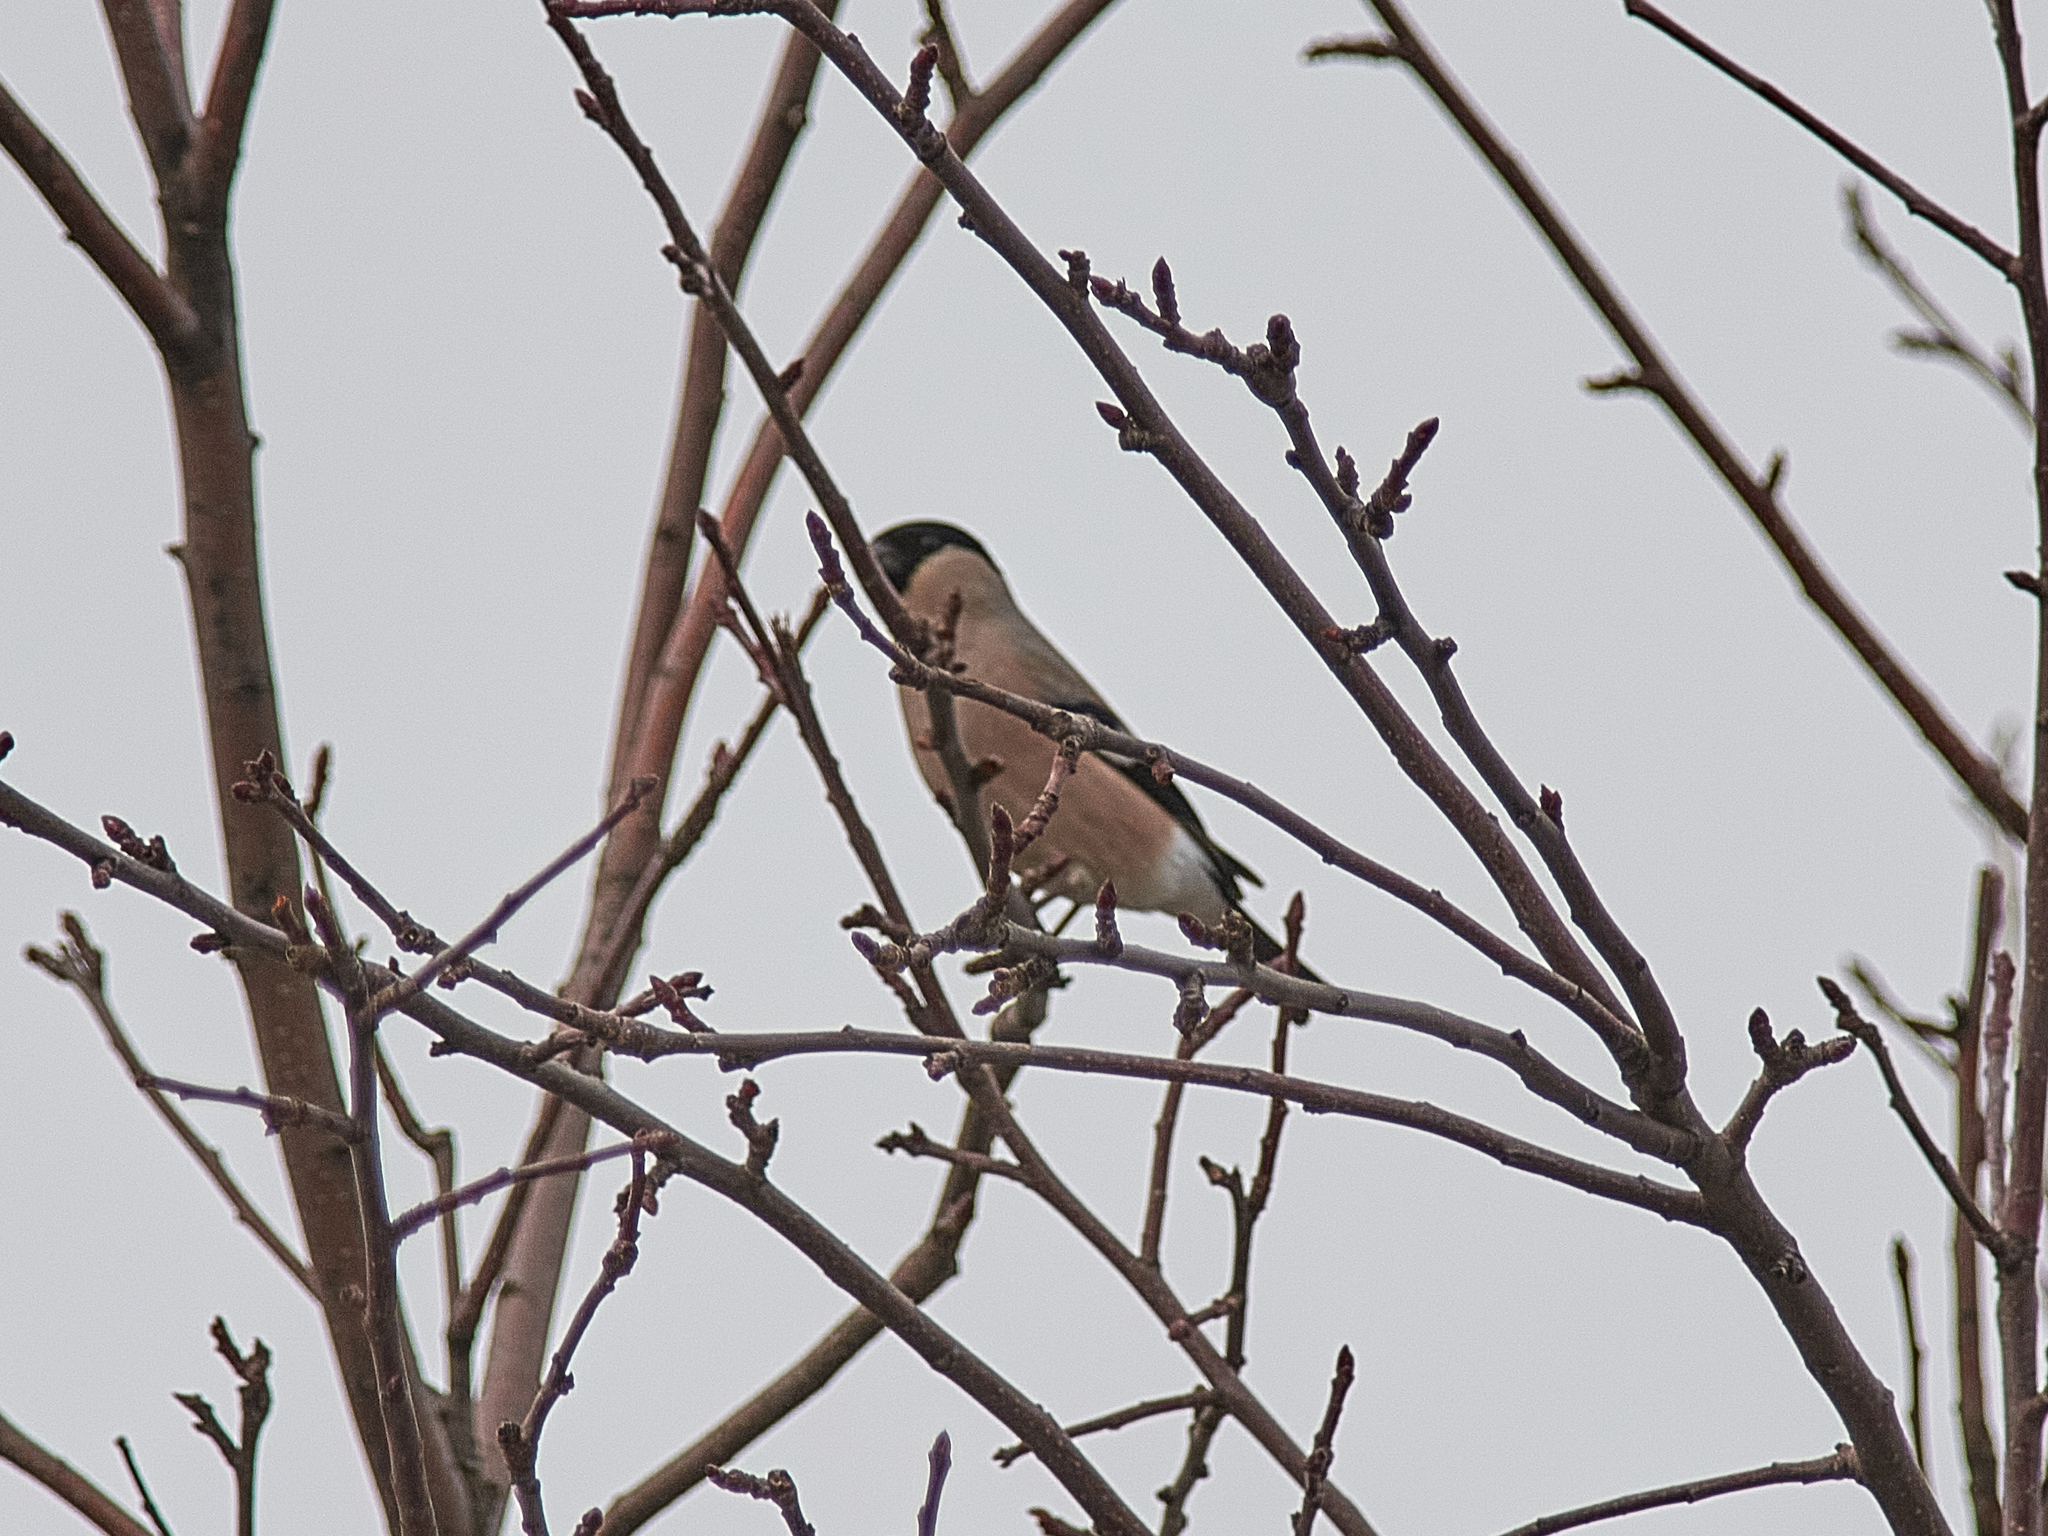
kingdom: Animalia
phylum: Chordata
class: Aves
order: Passeriformes
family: Fringillidae
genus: Pyrrhula
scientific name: Pyrrhula pyrrhula
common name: Eurasian bullfinch
